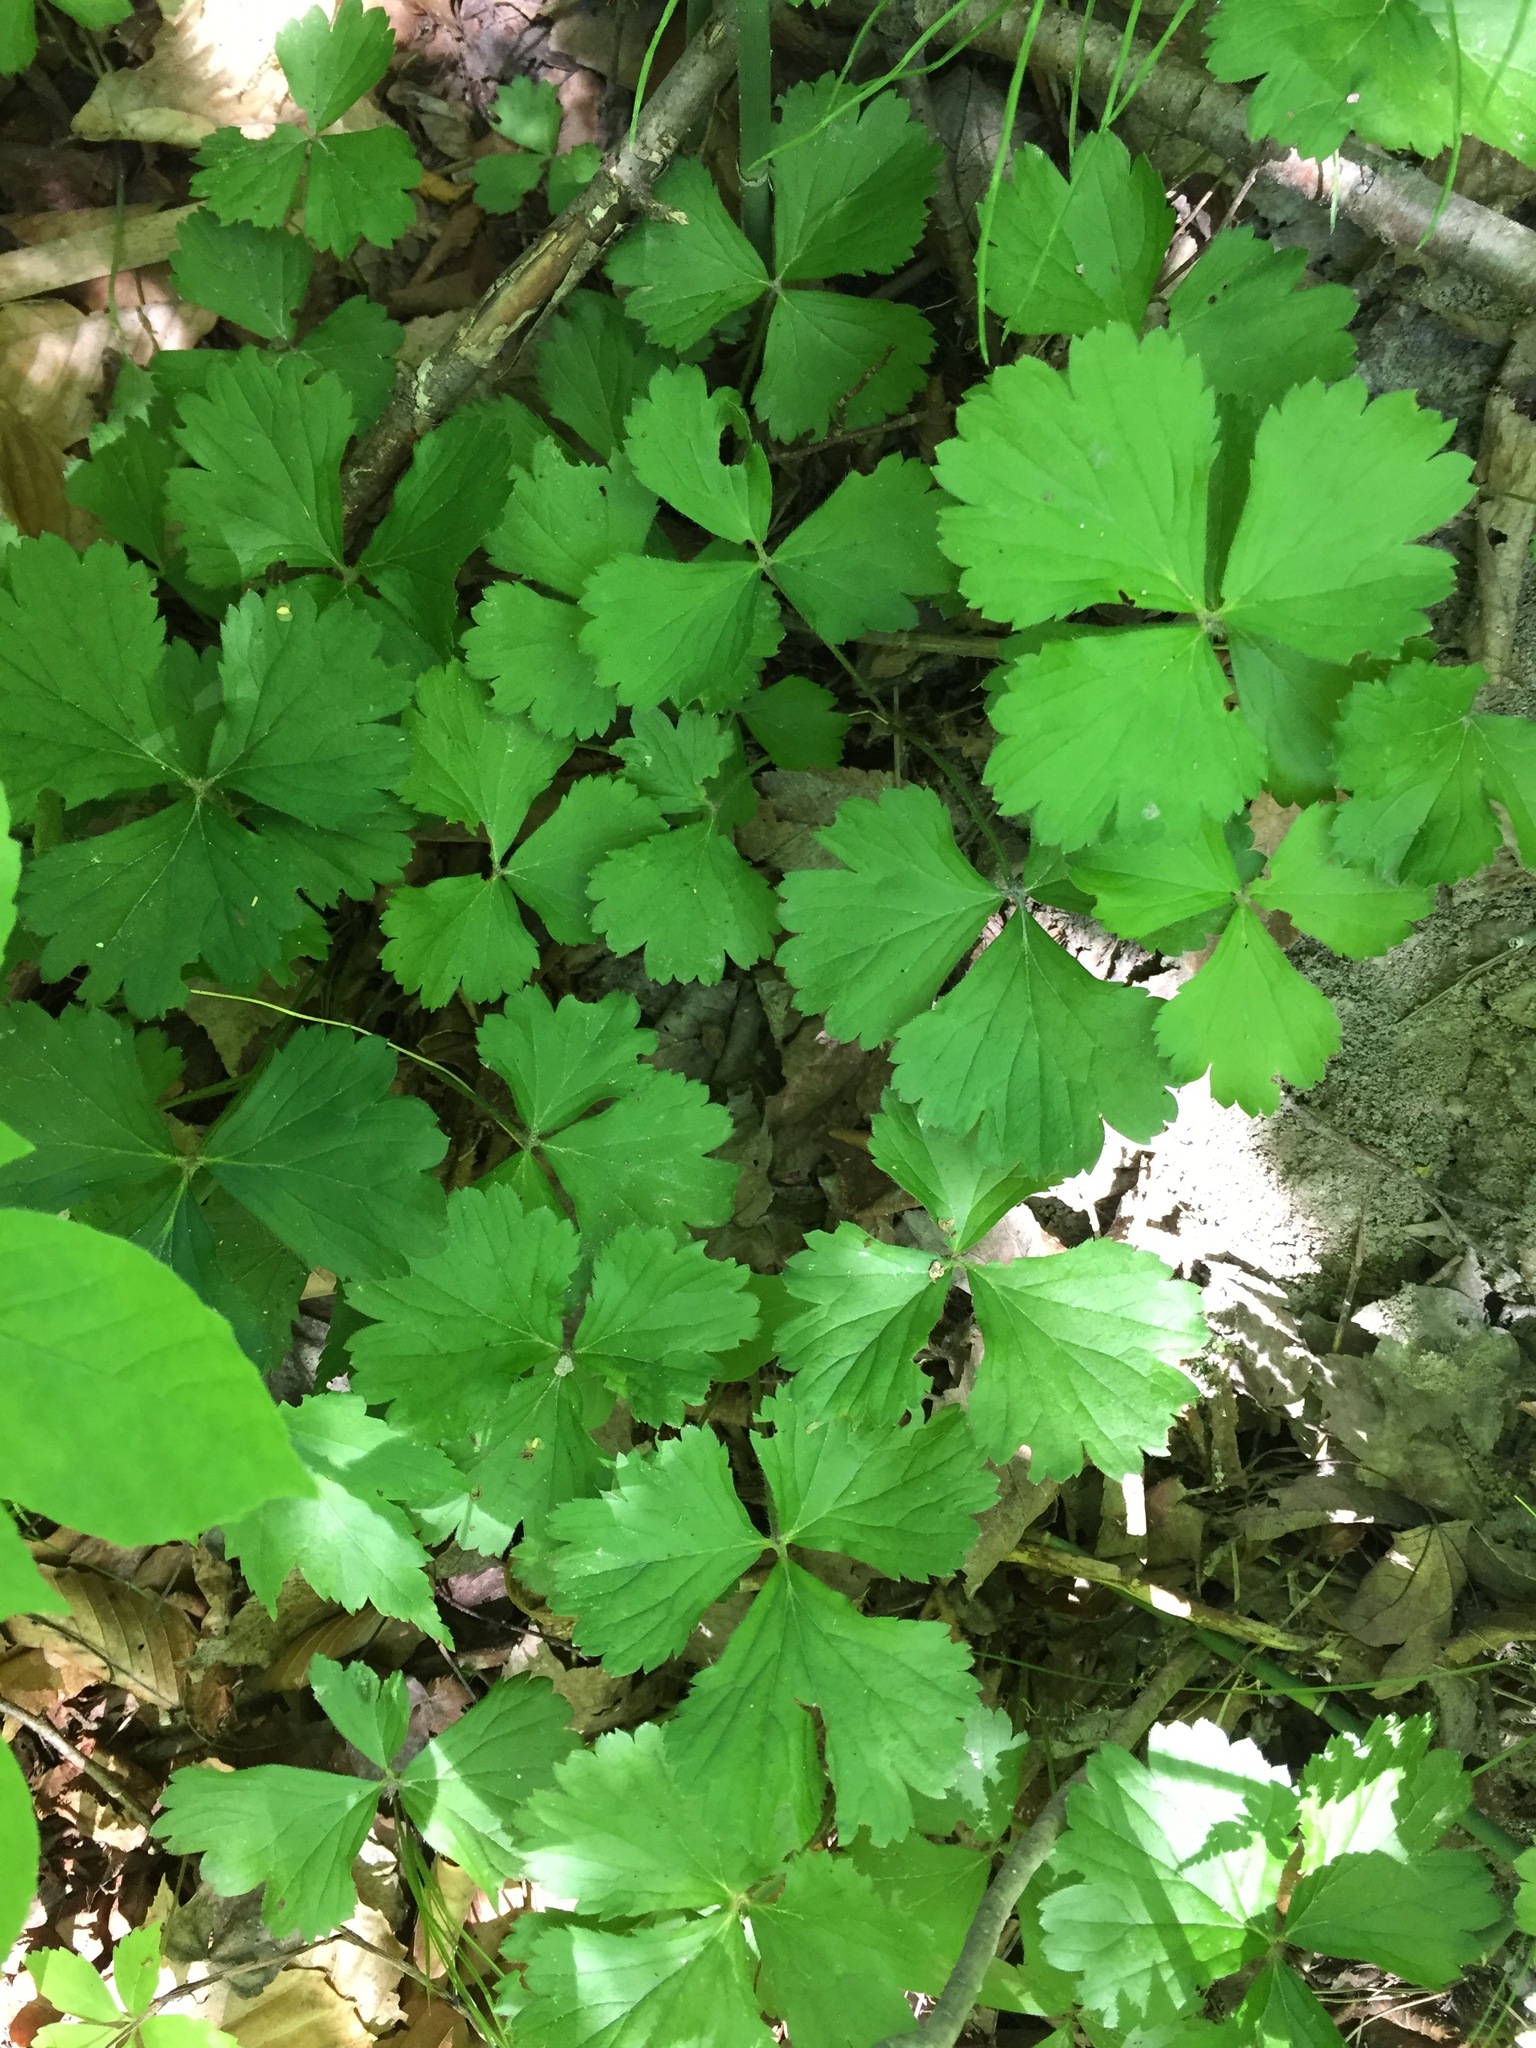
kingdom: Plantae
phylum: Tracheophyta
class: Magnoliopsida
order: Rosales
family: Rosaceae
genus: Geum
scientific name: Geum fragarioides
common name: Appalachian barren strawberry
